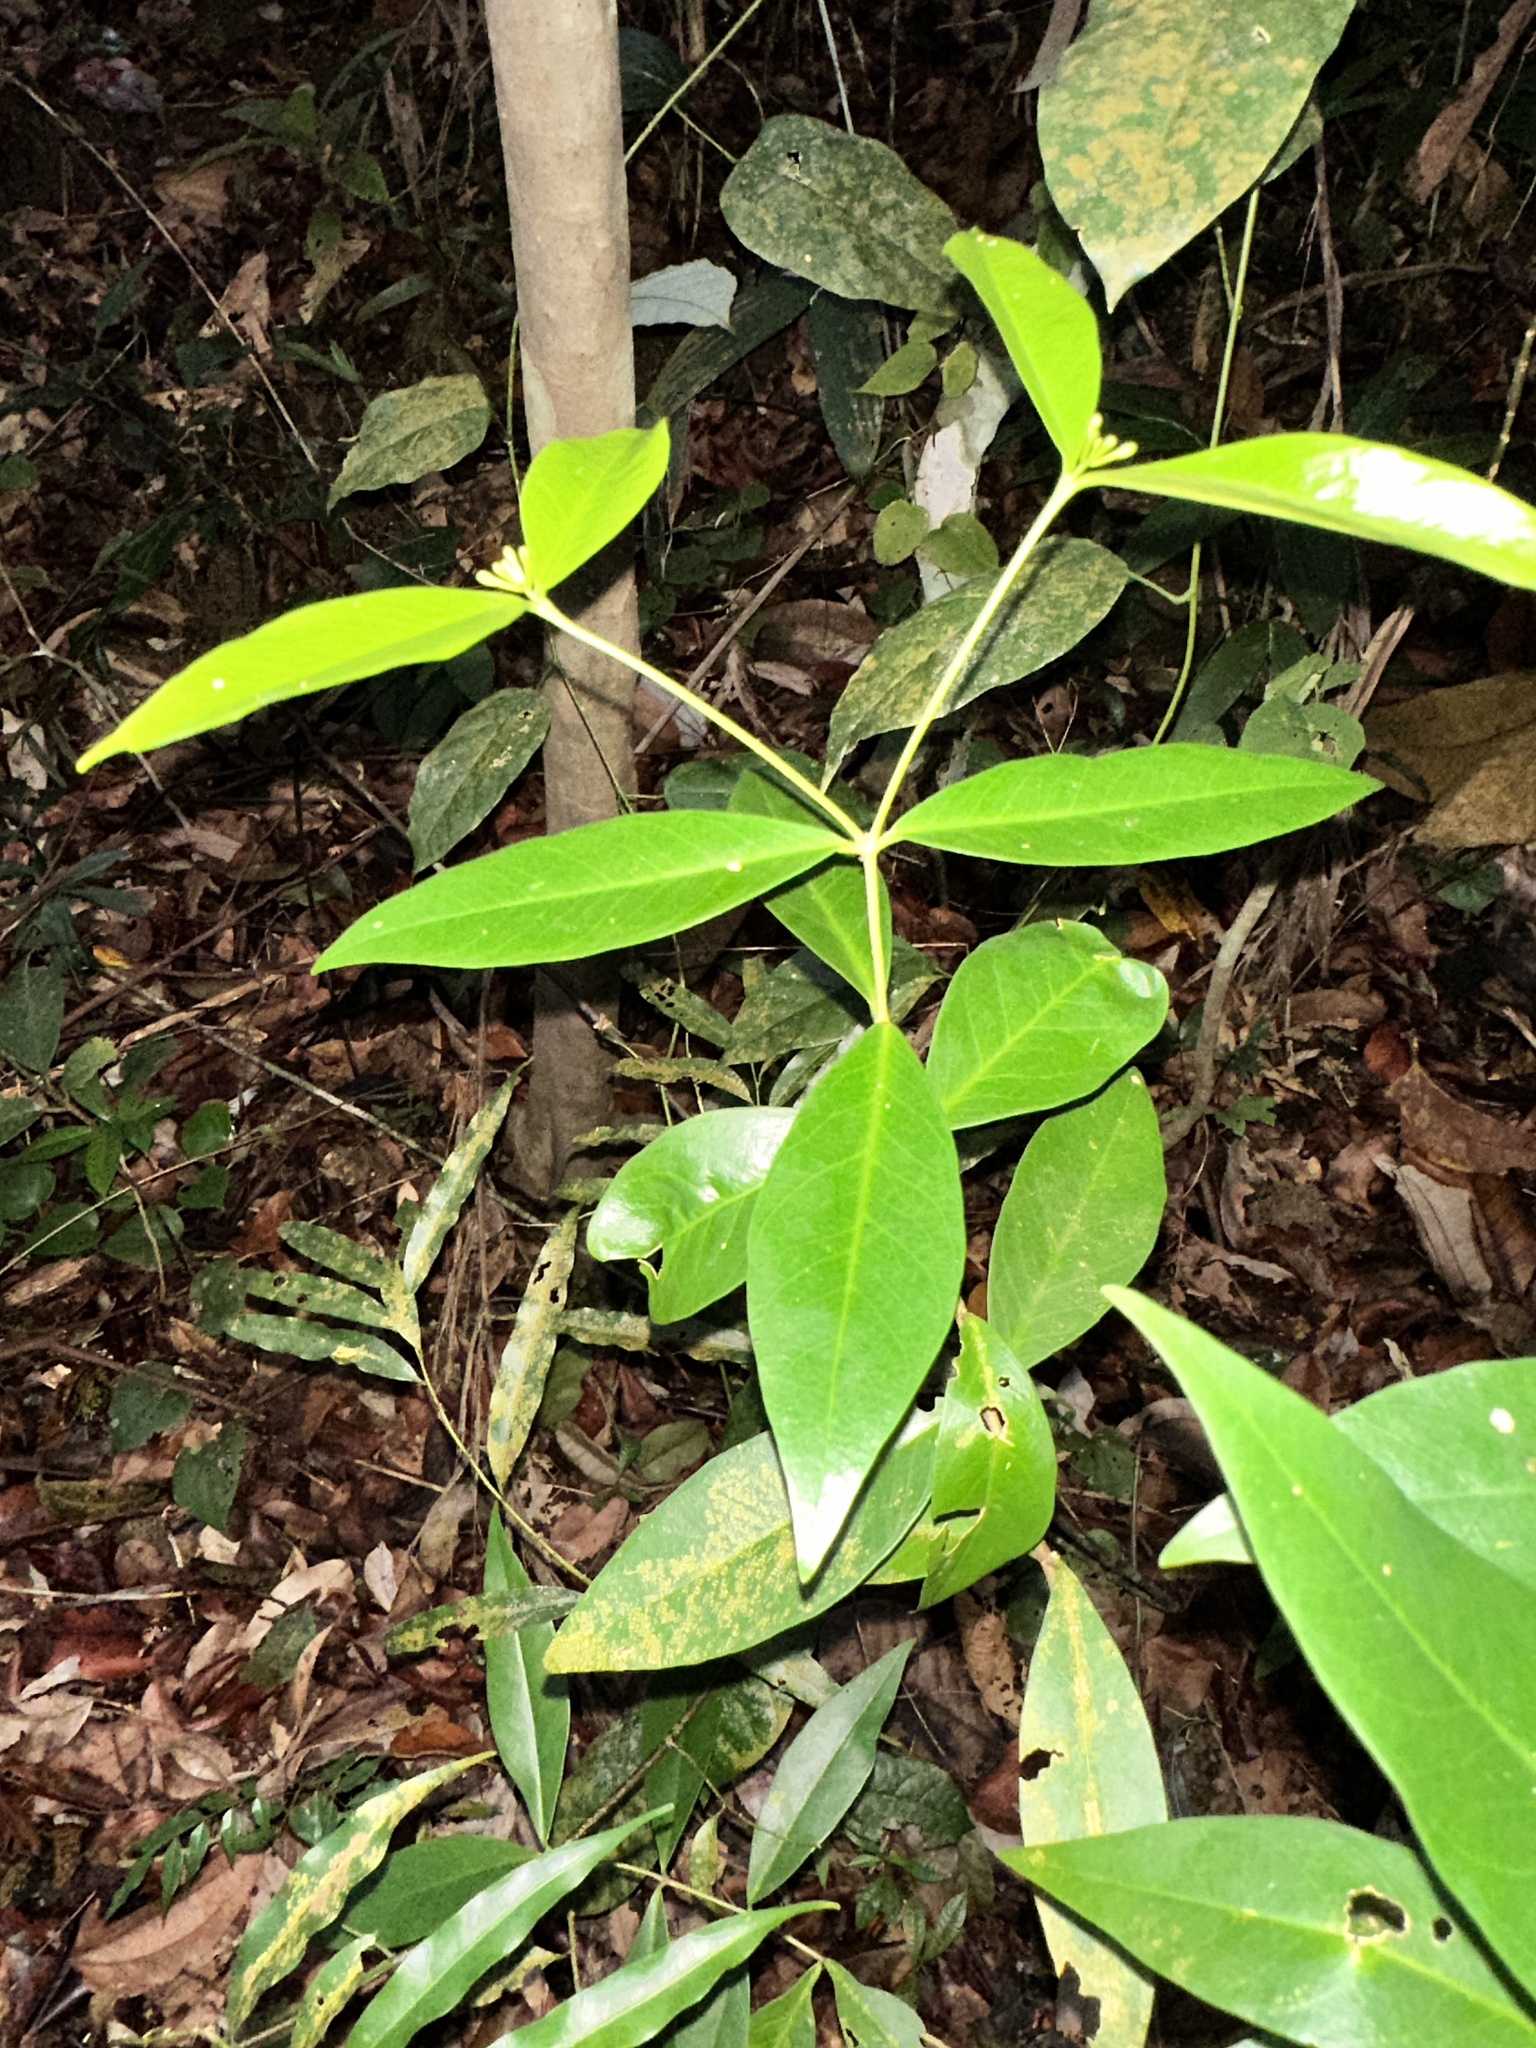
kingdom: Plantae
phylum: Tracheophyta
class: Magnoliopsida
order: Malvales
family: Thymelaeaceae
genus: Wikstroemia
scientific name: Wikstroemia ridleyi
